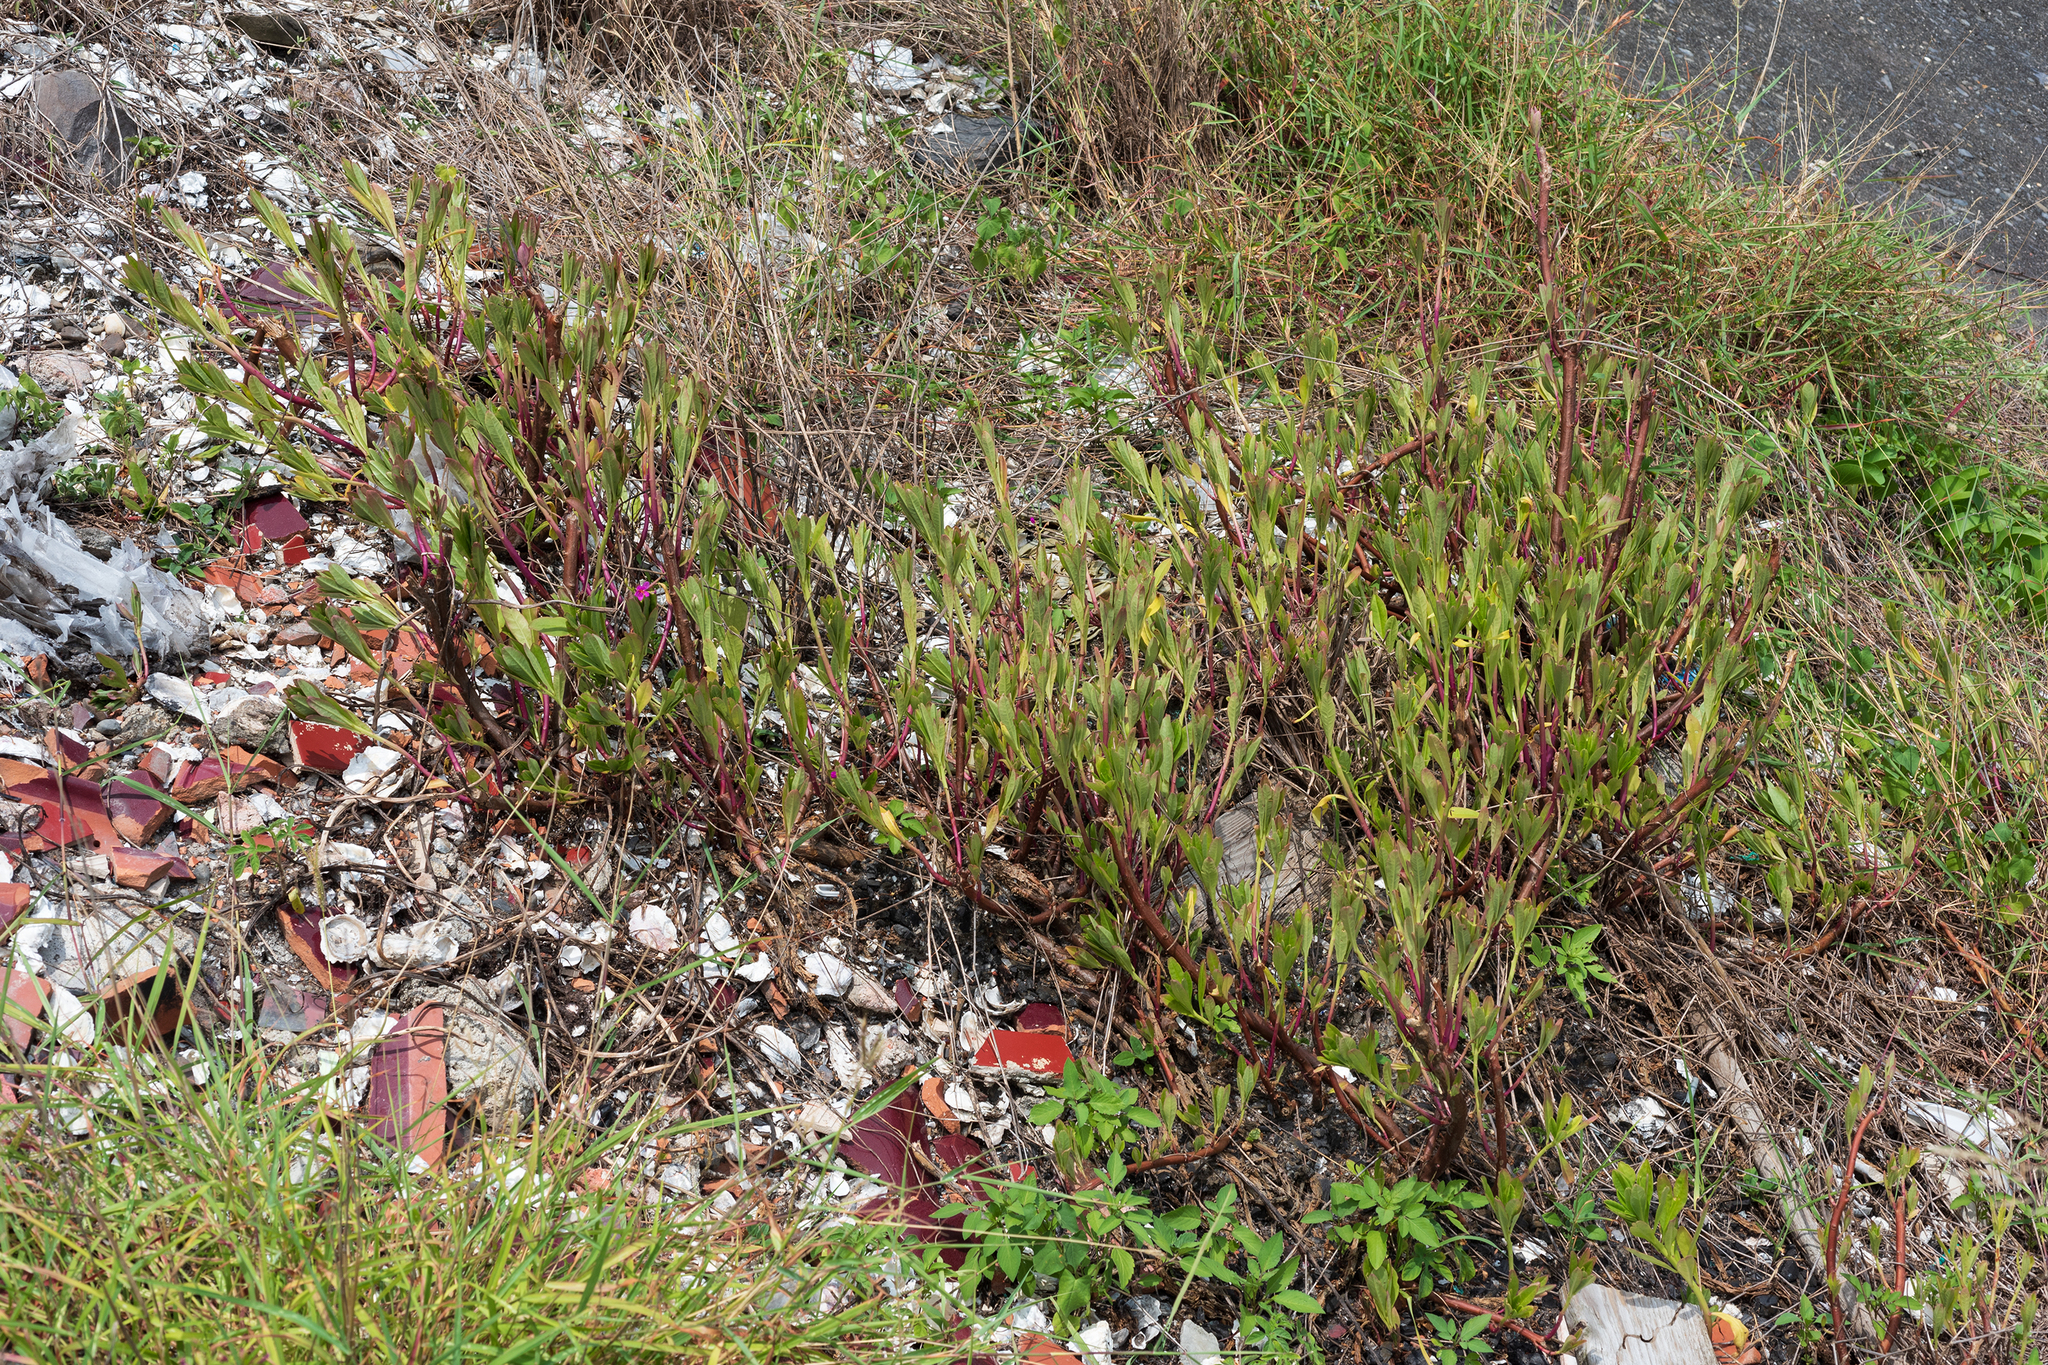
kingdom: Plantae
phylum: Tracheophyta
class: Magnoliopsida
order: Caryophyllales
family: Talinaceae
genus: Talinum
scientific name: Talinum fruticosum
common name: Verdolaga-francesa
